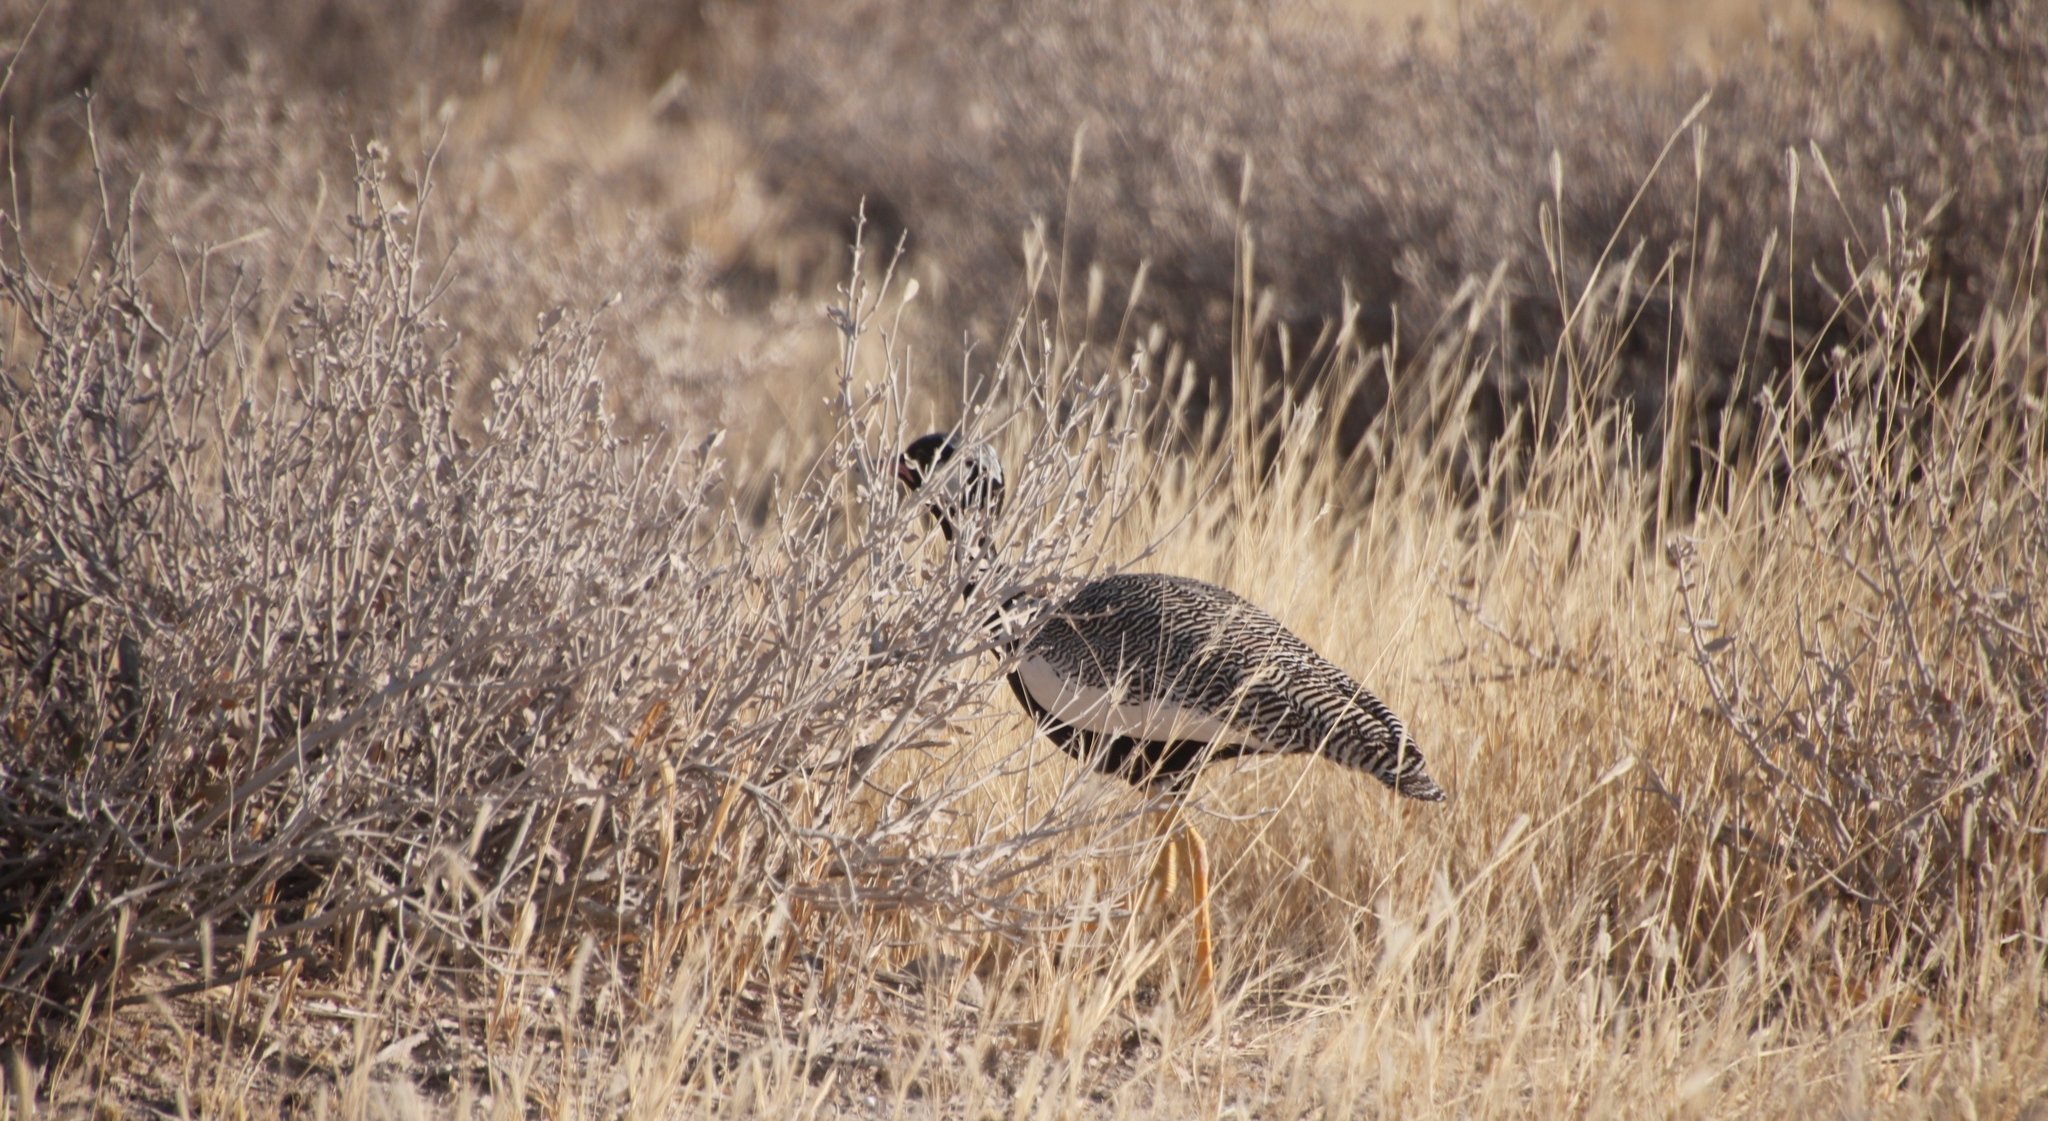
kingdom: Animalia
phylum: Chordata
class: Aves
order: Otidiformes
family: Otididae
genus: Afrotis
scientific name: Afrotis afraoides
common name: Northern black korhaan
